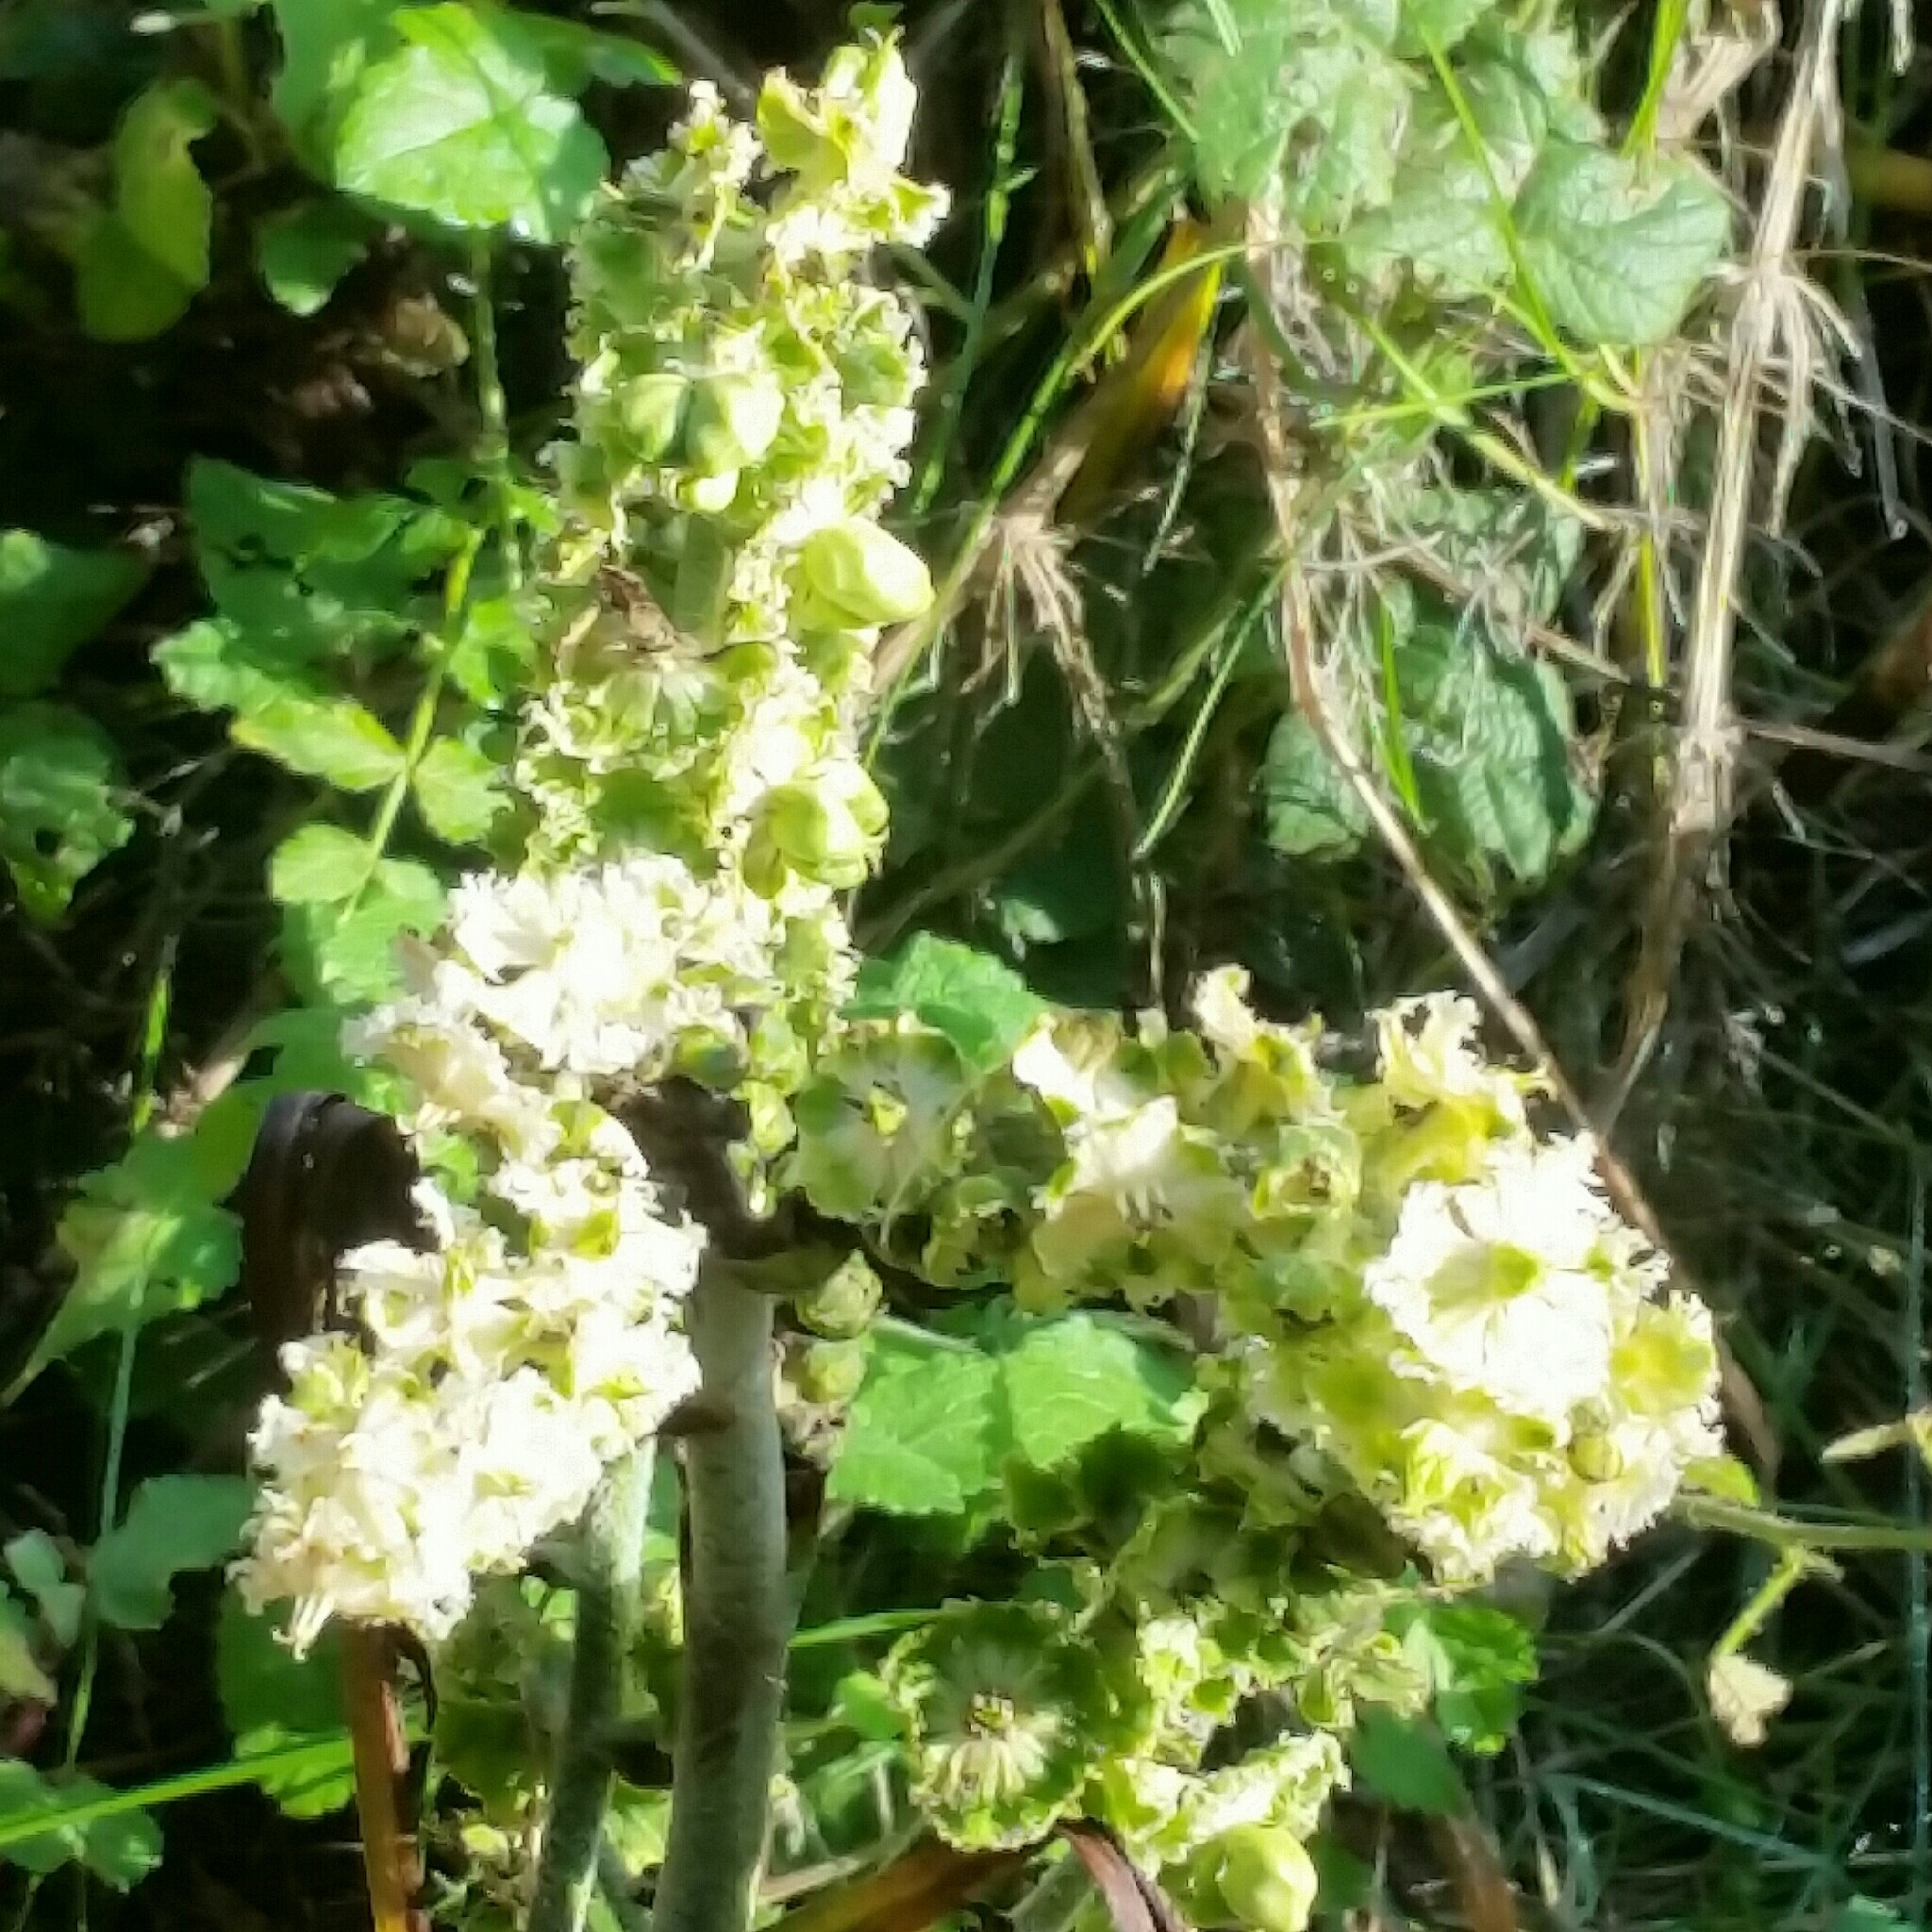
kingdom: Plantae
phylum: Tracheophyta
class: Liliopsida
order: Liliales
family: Melanthiaceae
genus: Veratrum
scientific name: Veratrum fimbriatum
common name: Fringe false hellobore
